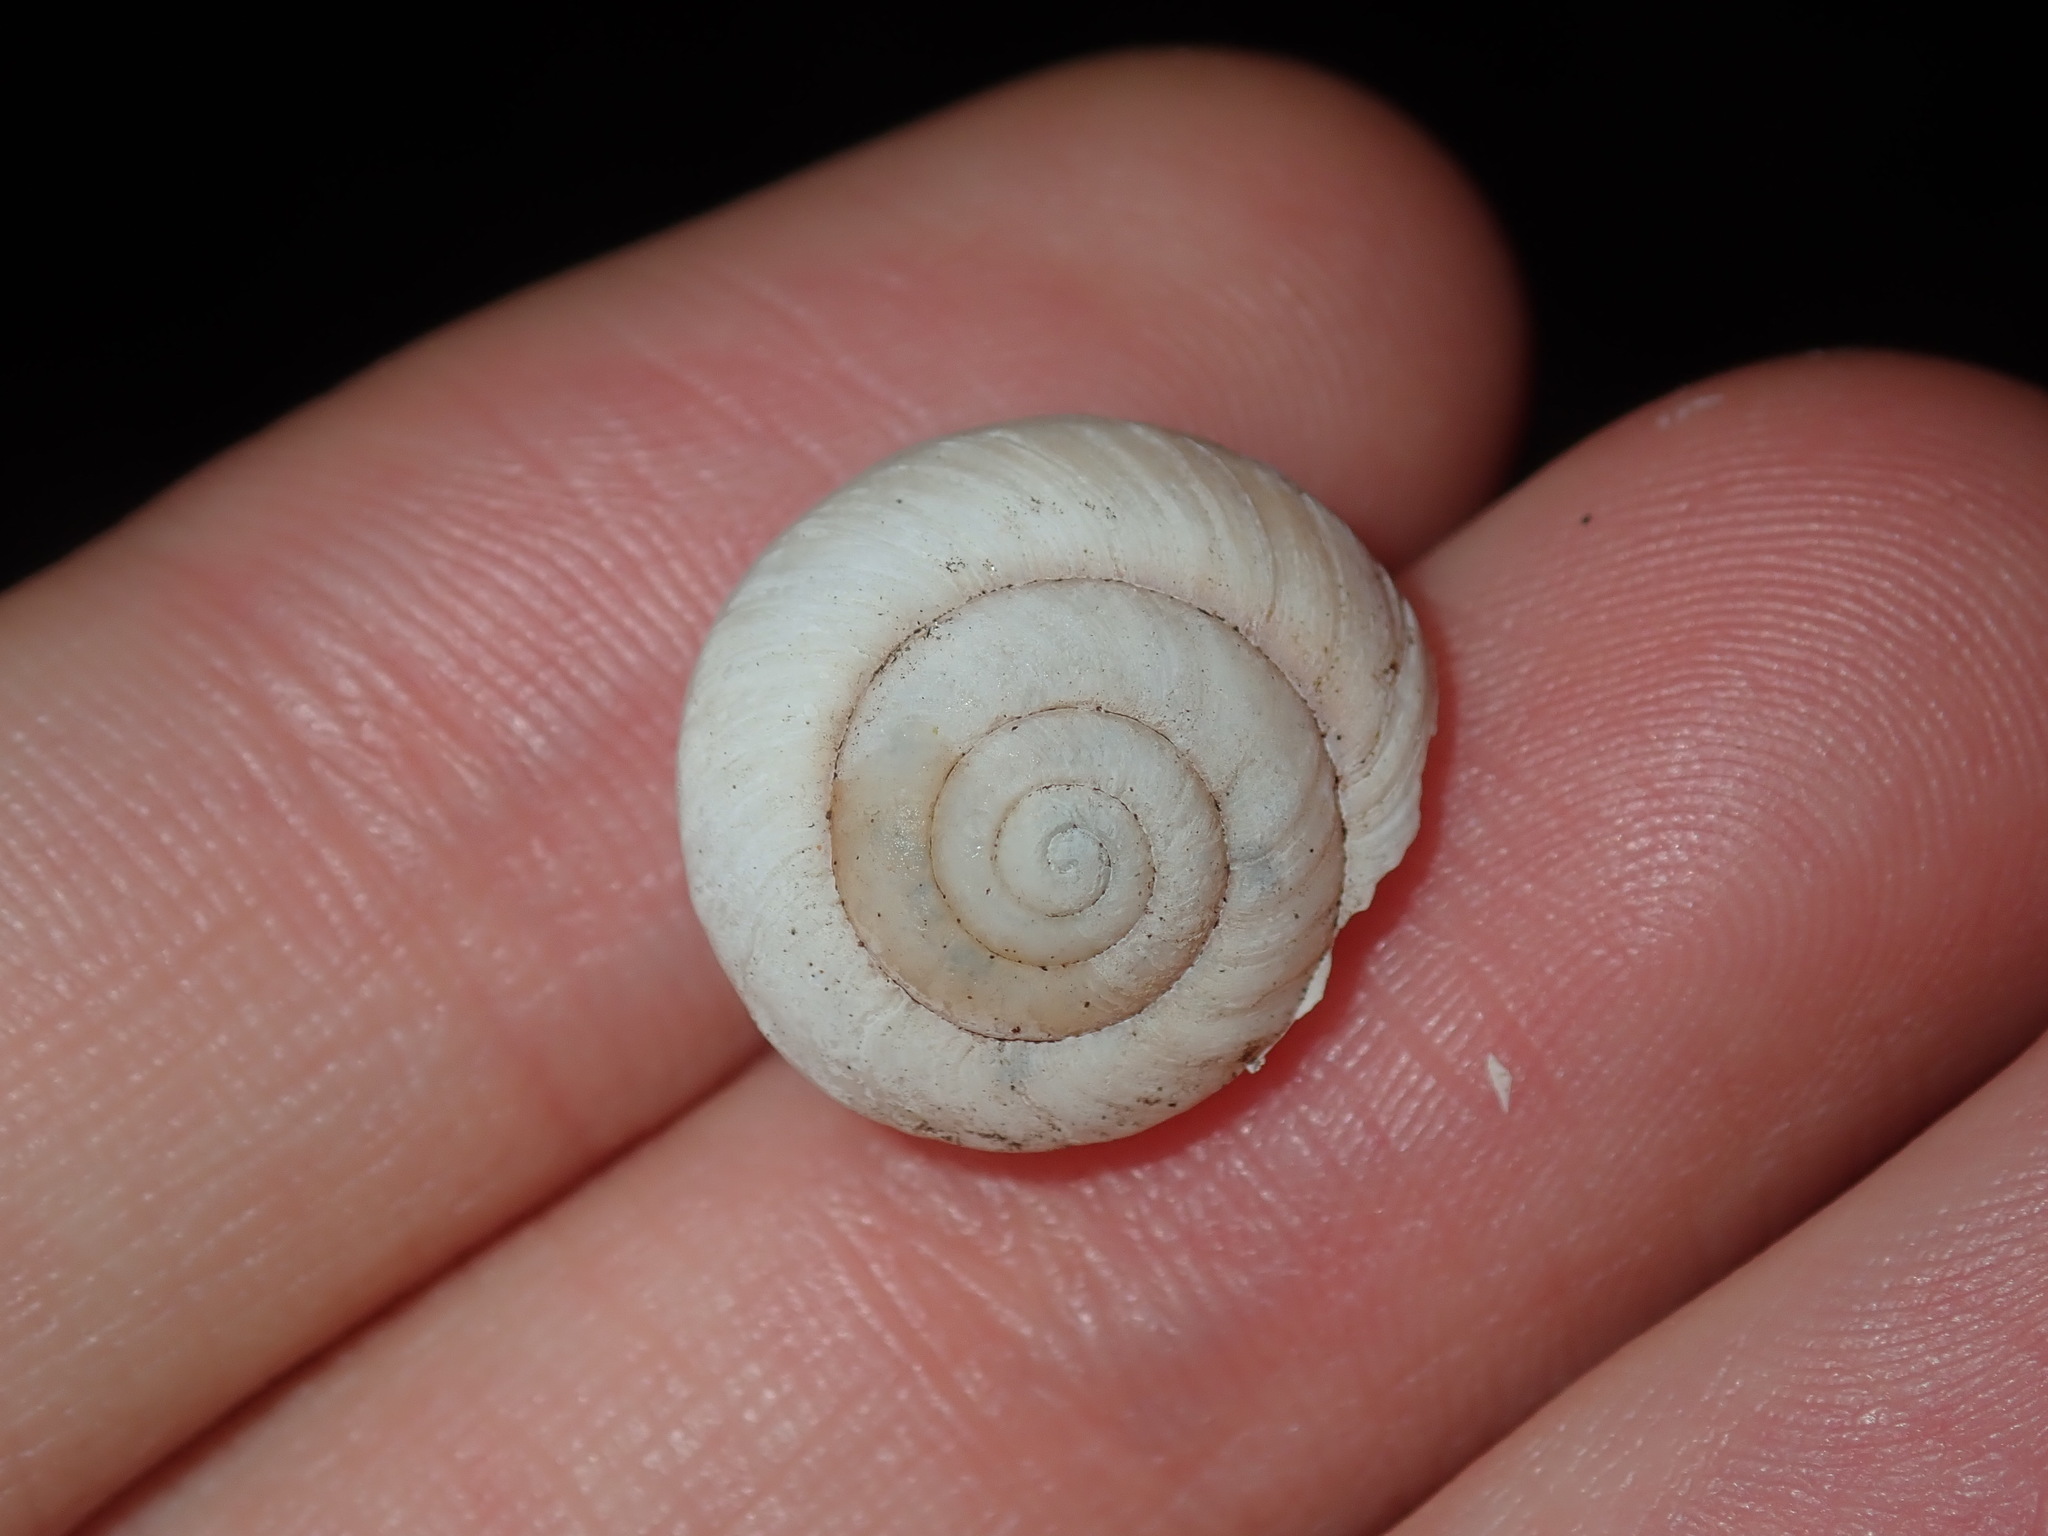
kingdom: Animalia
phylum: Mollusca
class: Gastropoda
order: Stylommatophora
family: Camaenidae
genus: Sauroconcha
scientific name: Sauroconcha sheai
